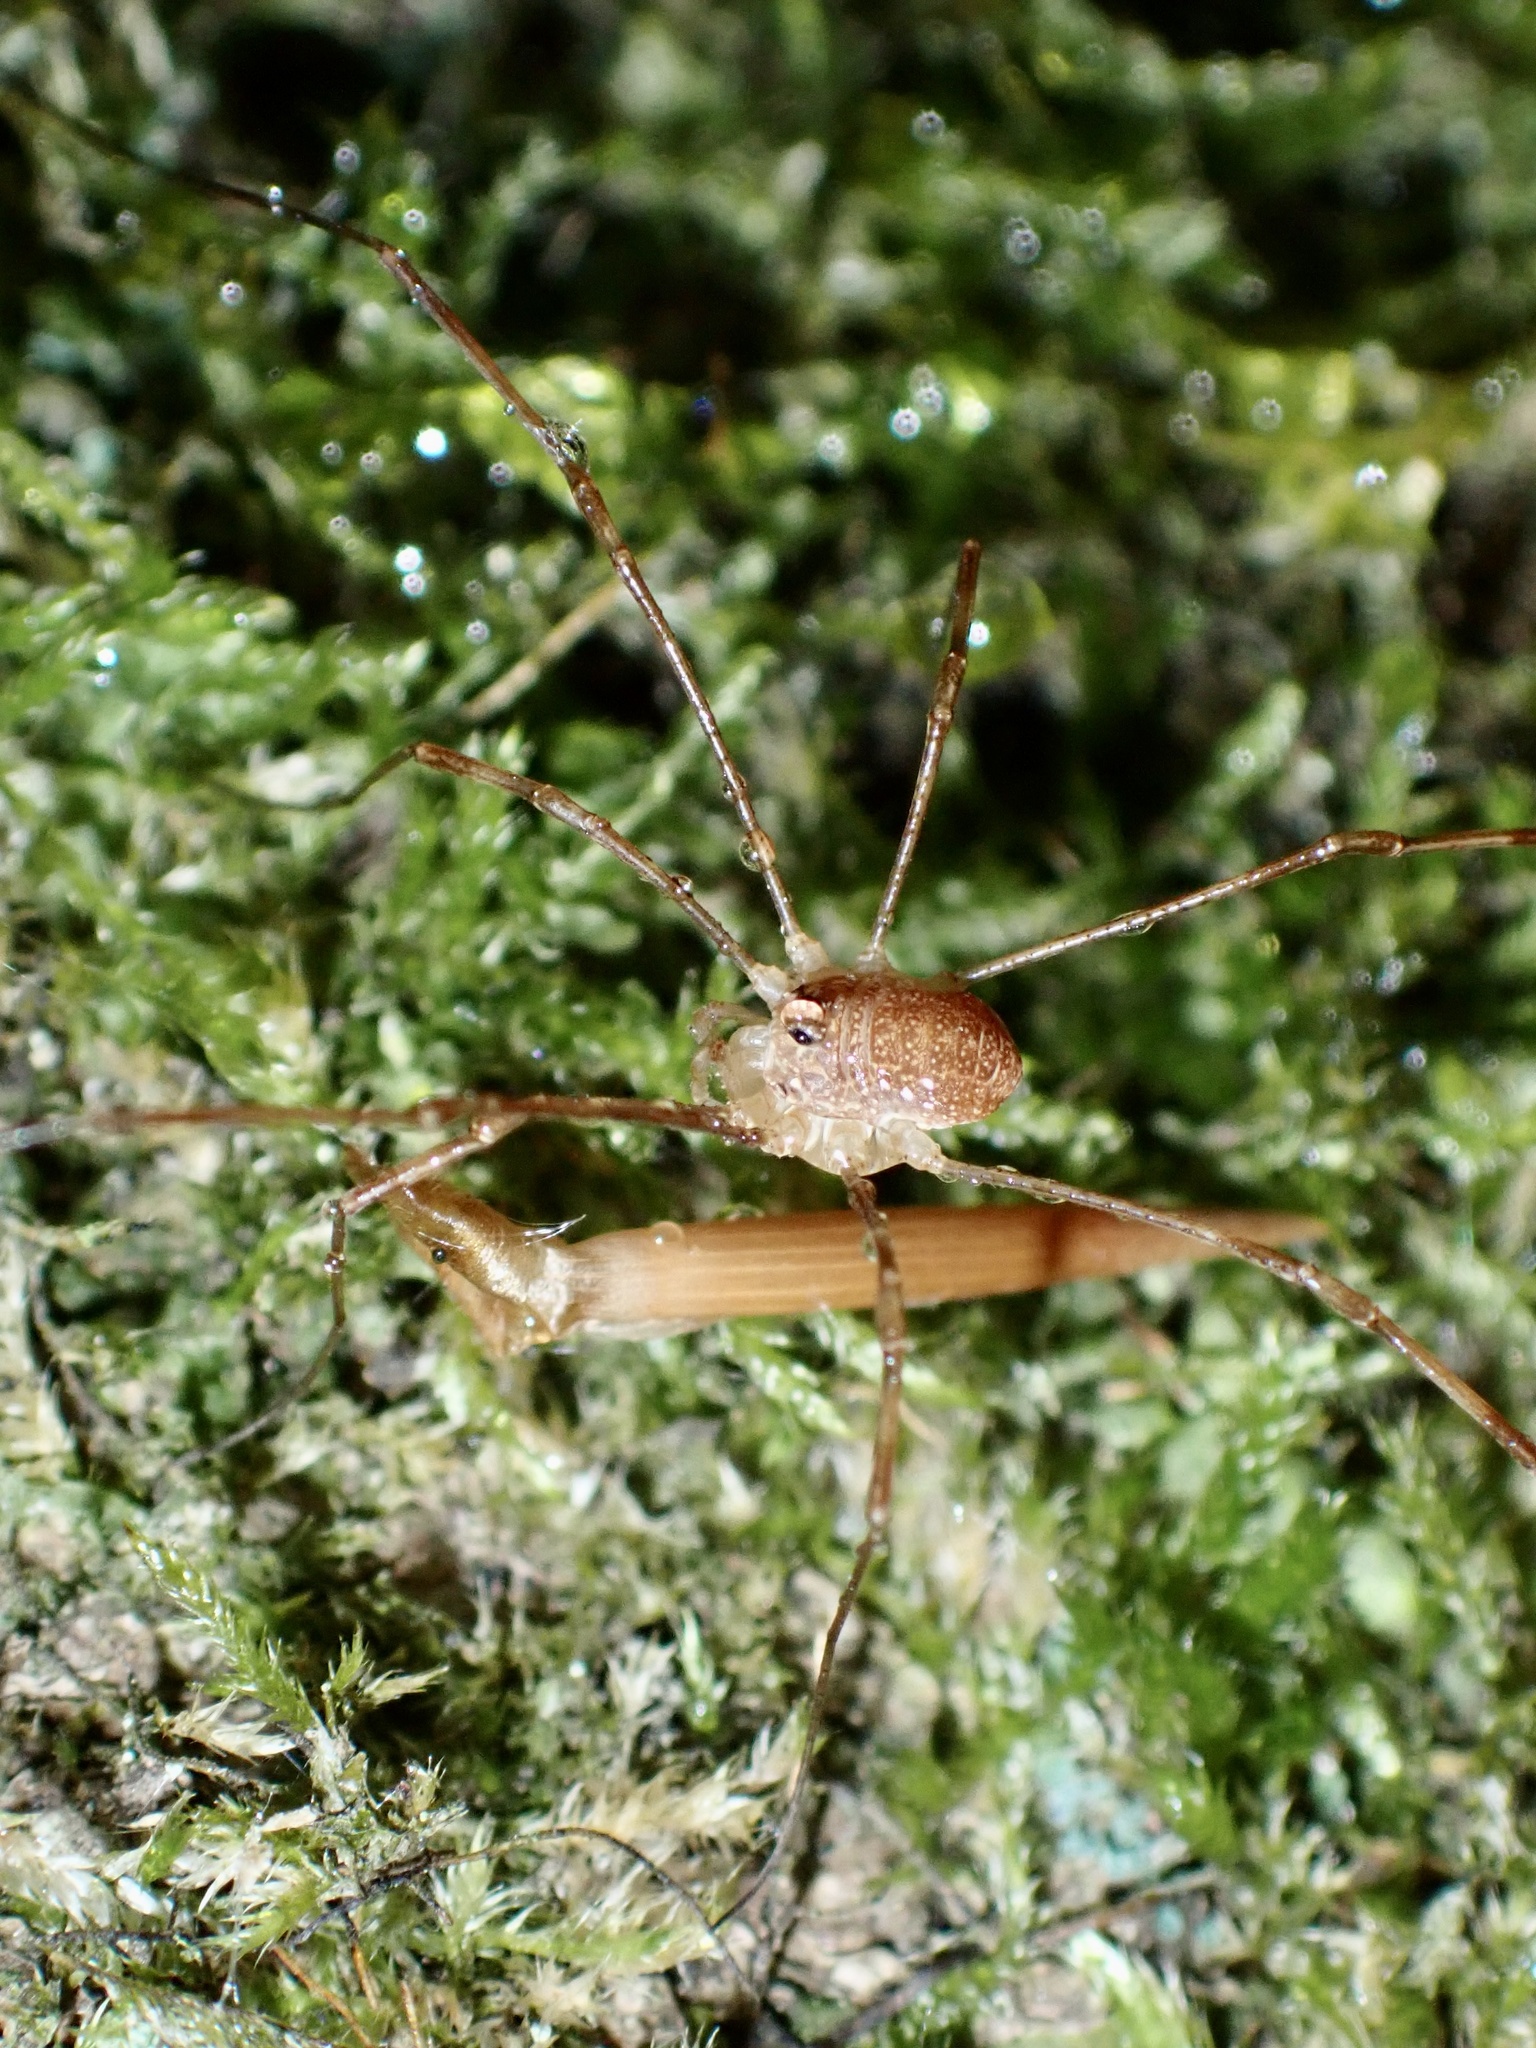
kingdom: Animalia
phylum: Arthropoda
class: Arachnida
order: Opiliones
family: Phalangiidae
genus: Rilaena
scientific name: Rilaena triangularis
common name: Spring harvestman
